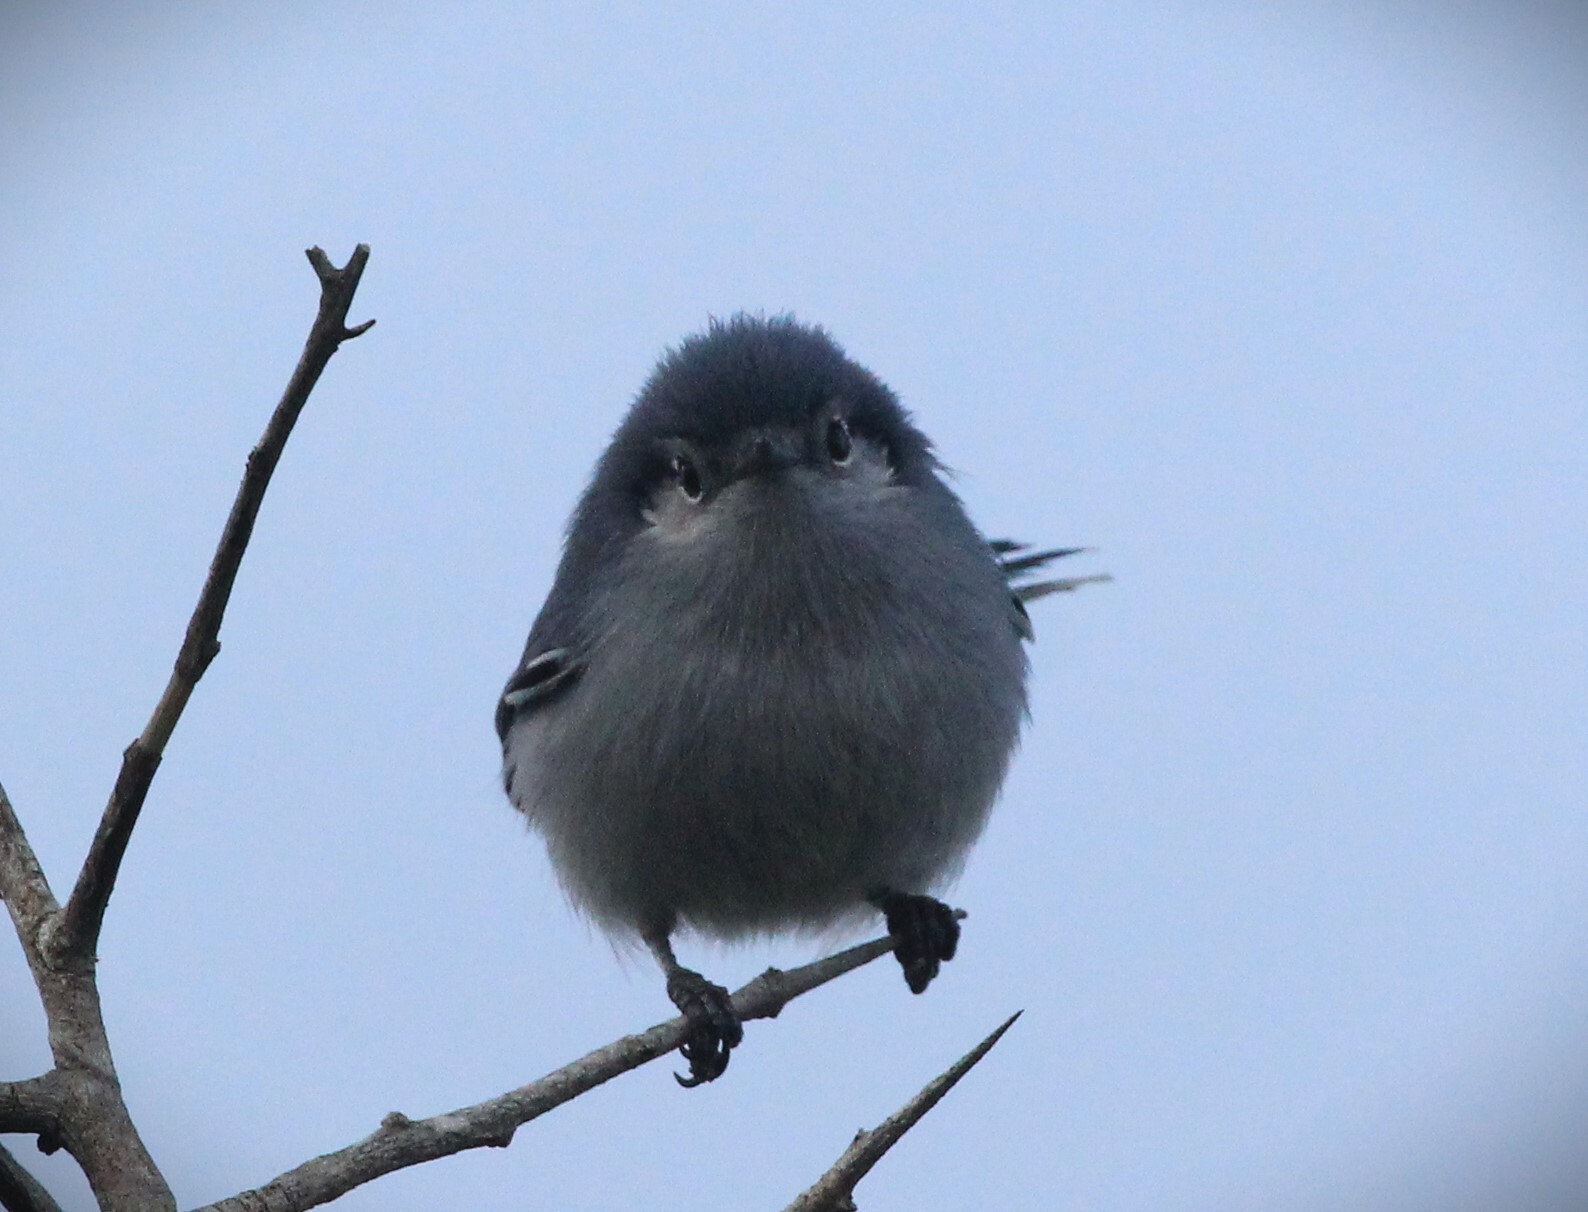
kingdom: Animalia
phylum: Chordata
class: Aves
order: Passeriformes
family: Polioptilidae
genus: Polioptila
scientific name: Polioptila dumicola
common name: Masked gnatcatcher
